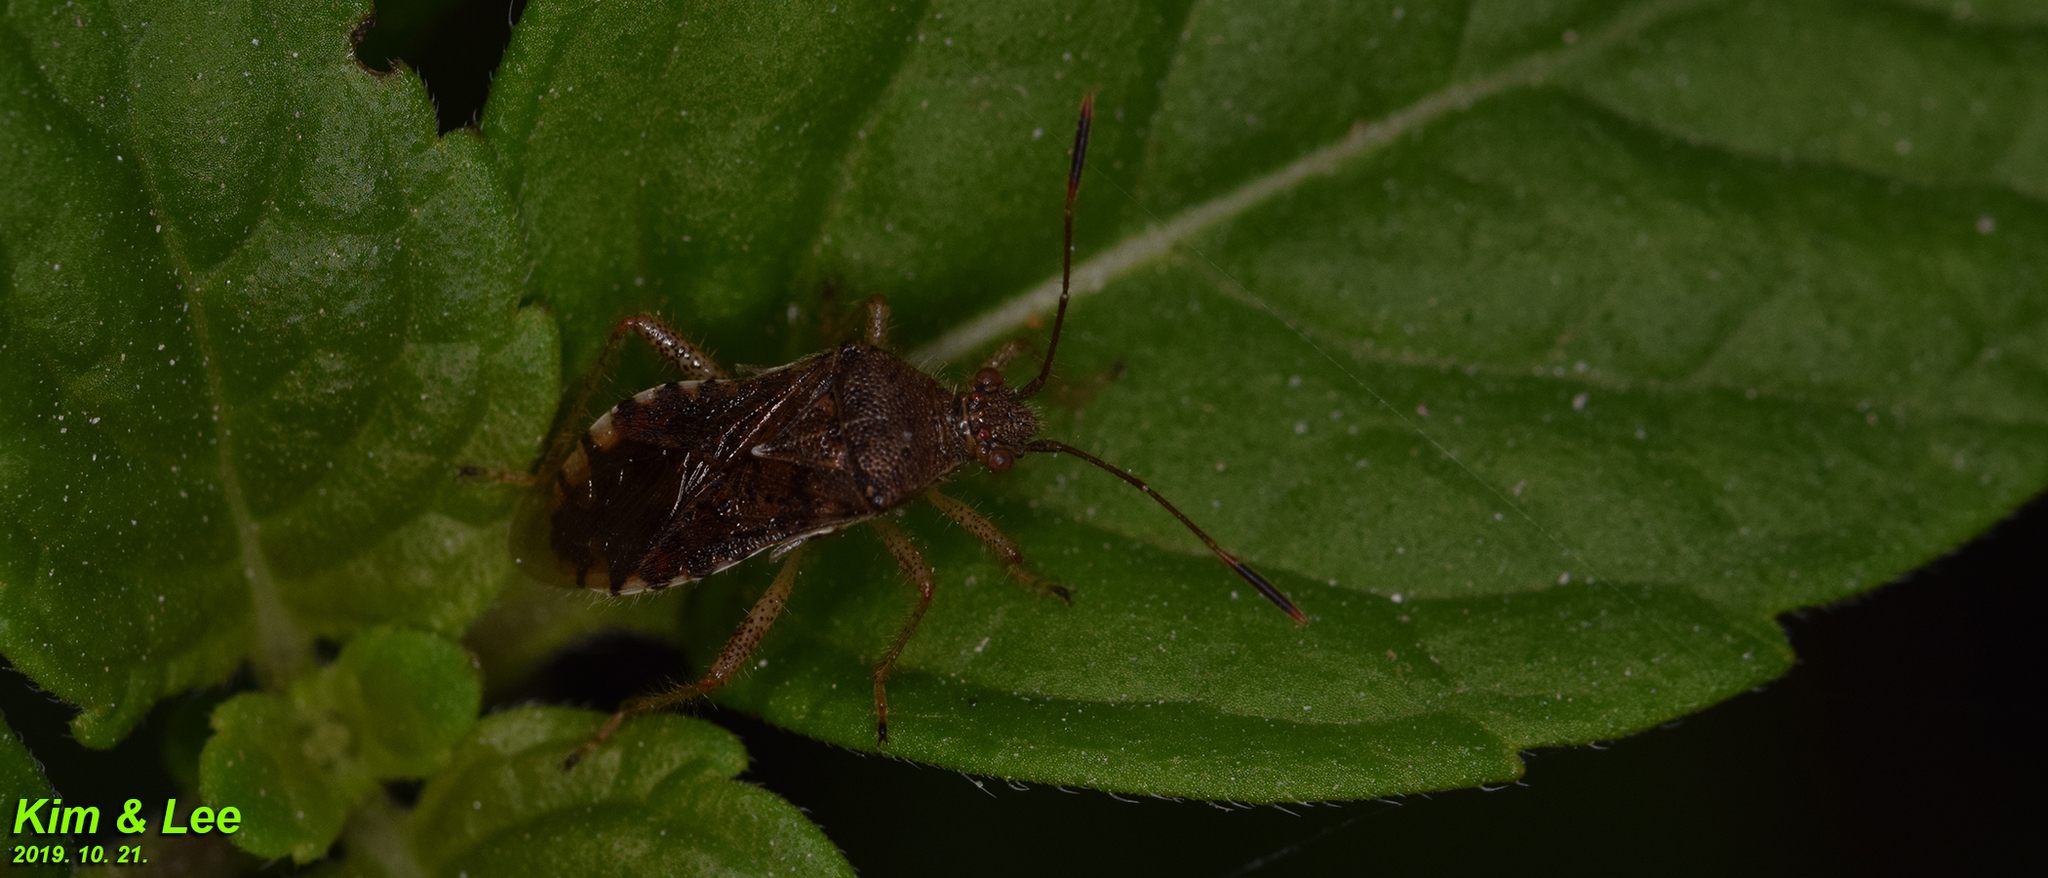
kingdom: Animalia
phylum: Arthropoda
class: Insecta
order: Hemiptera
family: Rhopalidae
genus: Rhopalus
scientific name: Rhopalus sapporensis
